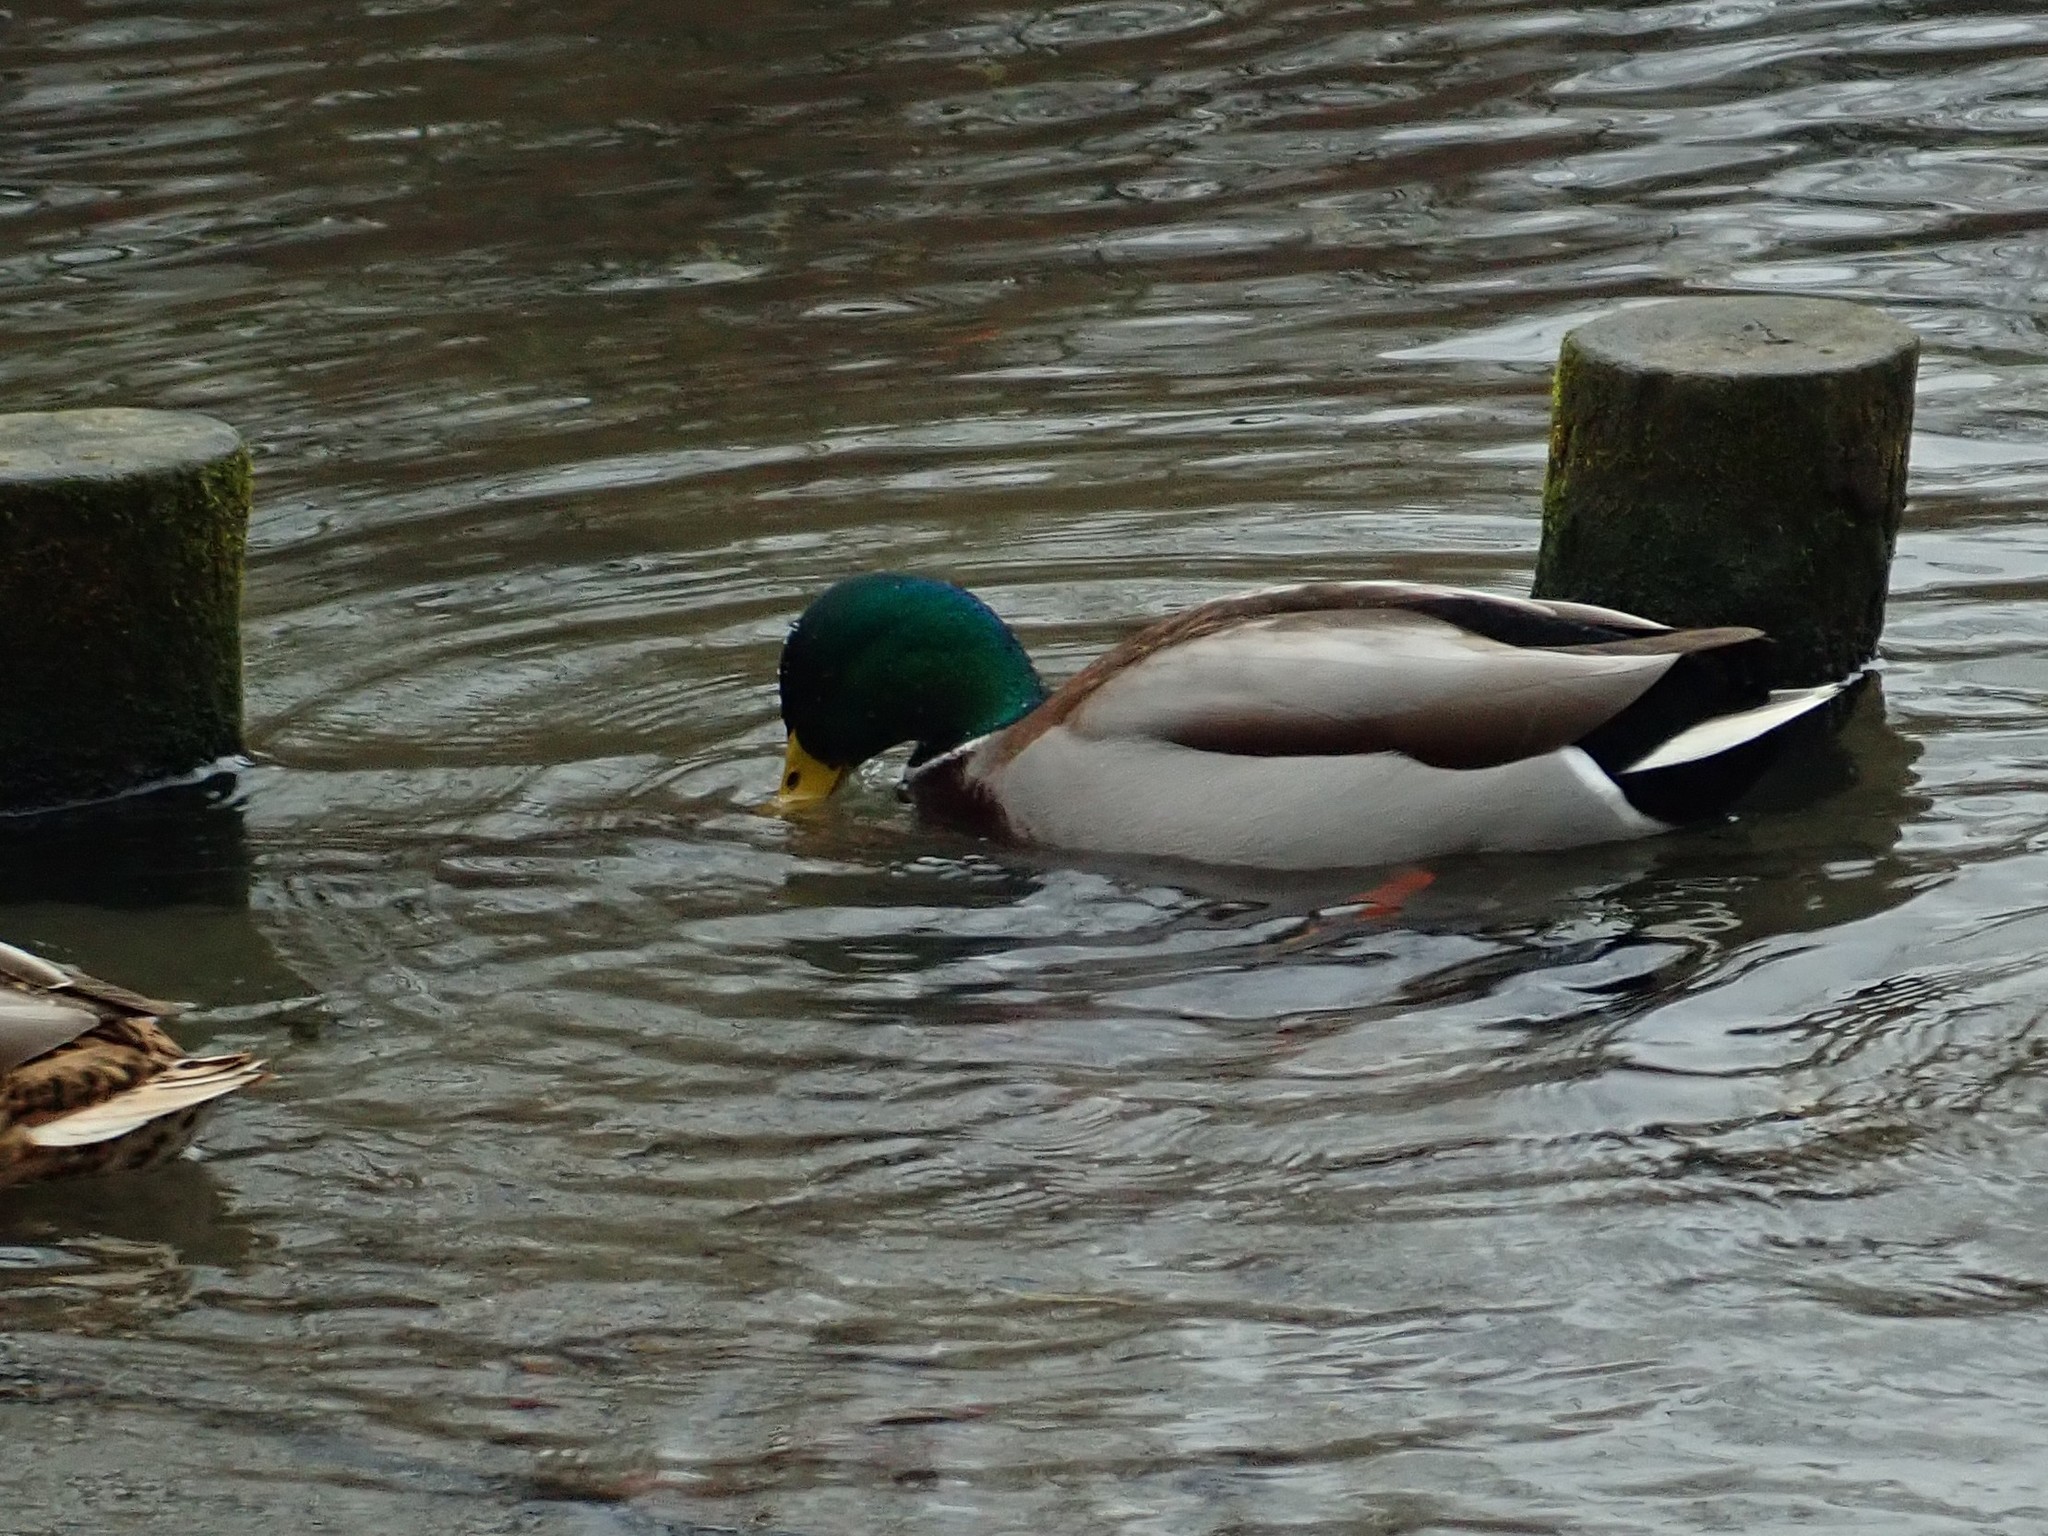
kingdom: Animalia
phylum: Chordata
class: Aves
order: Anseriformes
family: Anatidae
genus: Anas
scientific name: Anas platyrhynchos
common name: Mallard
